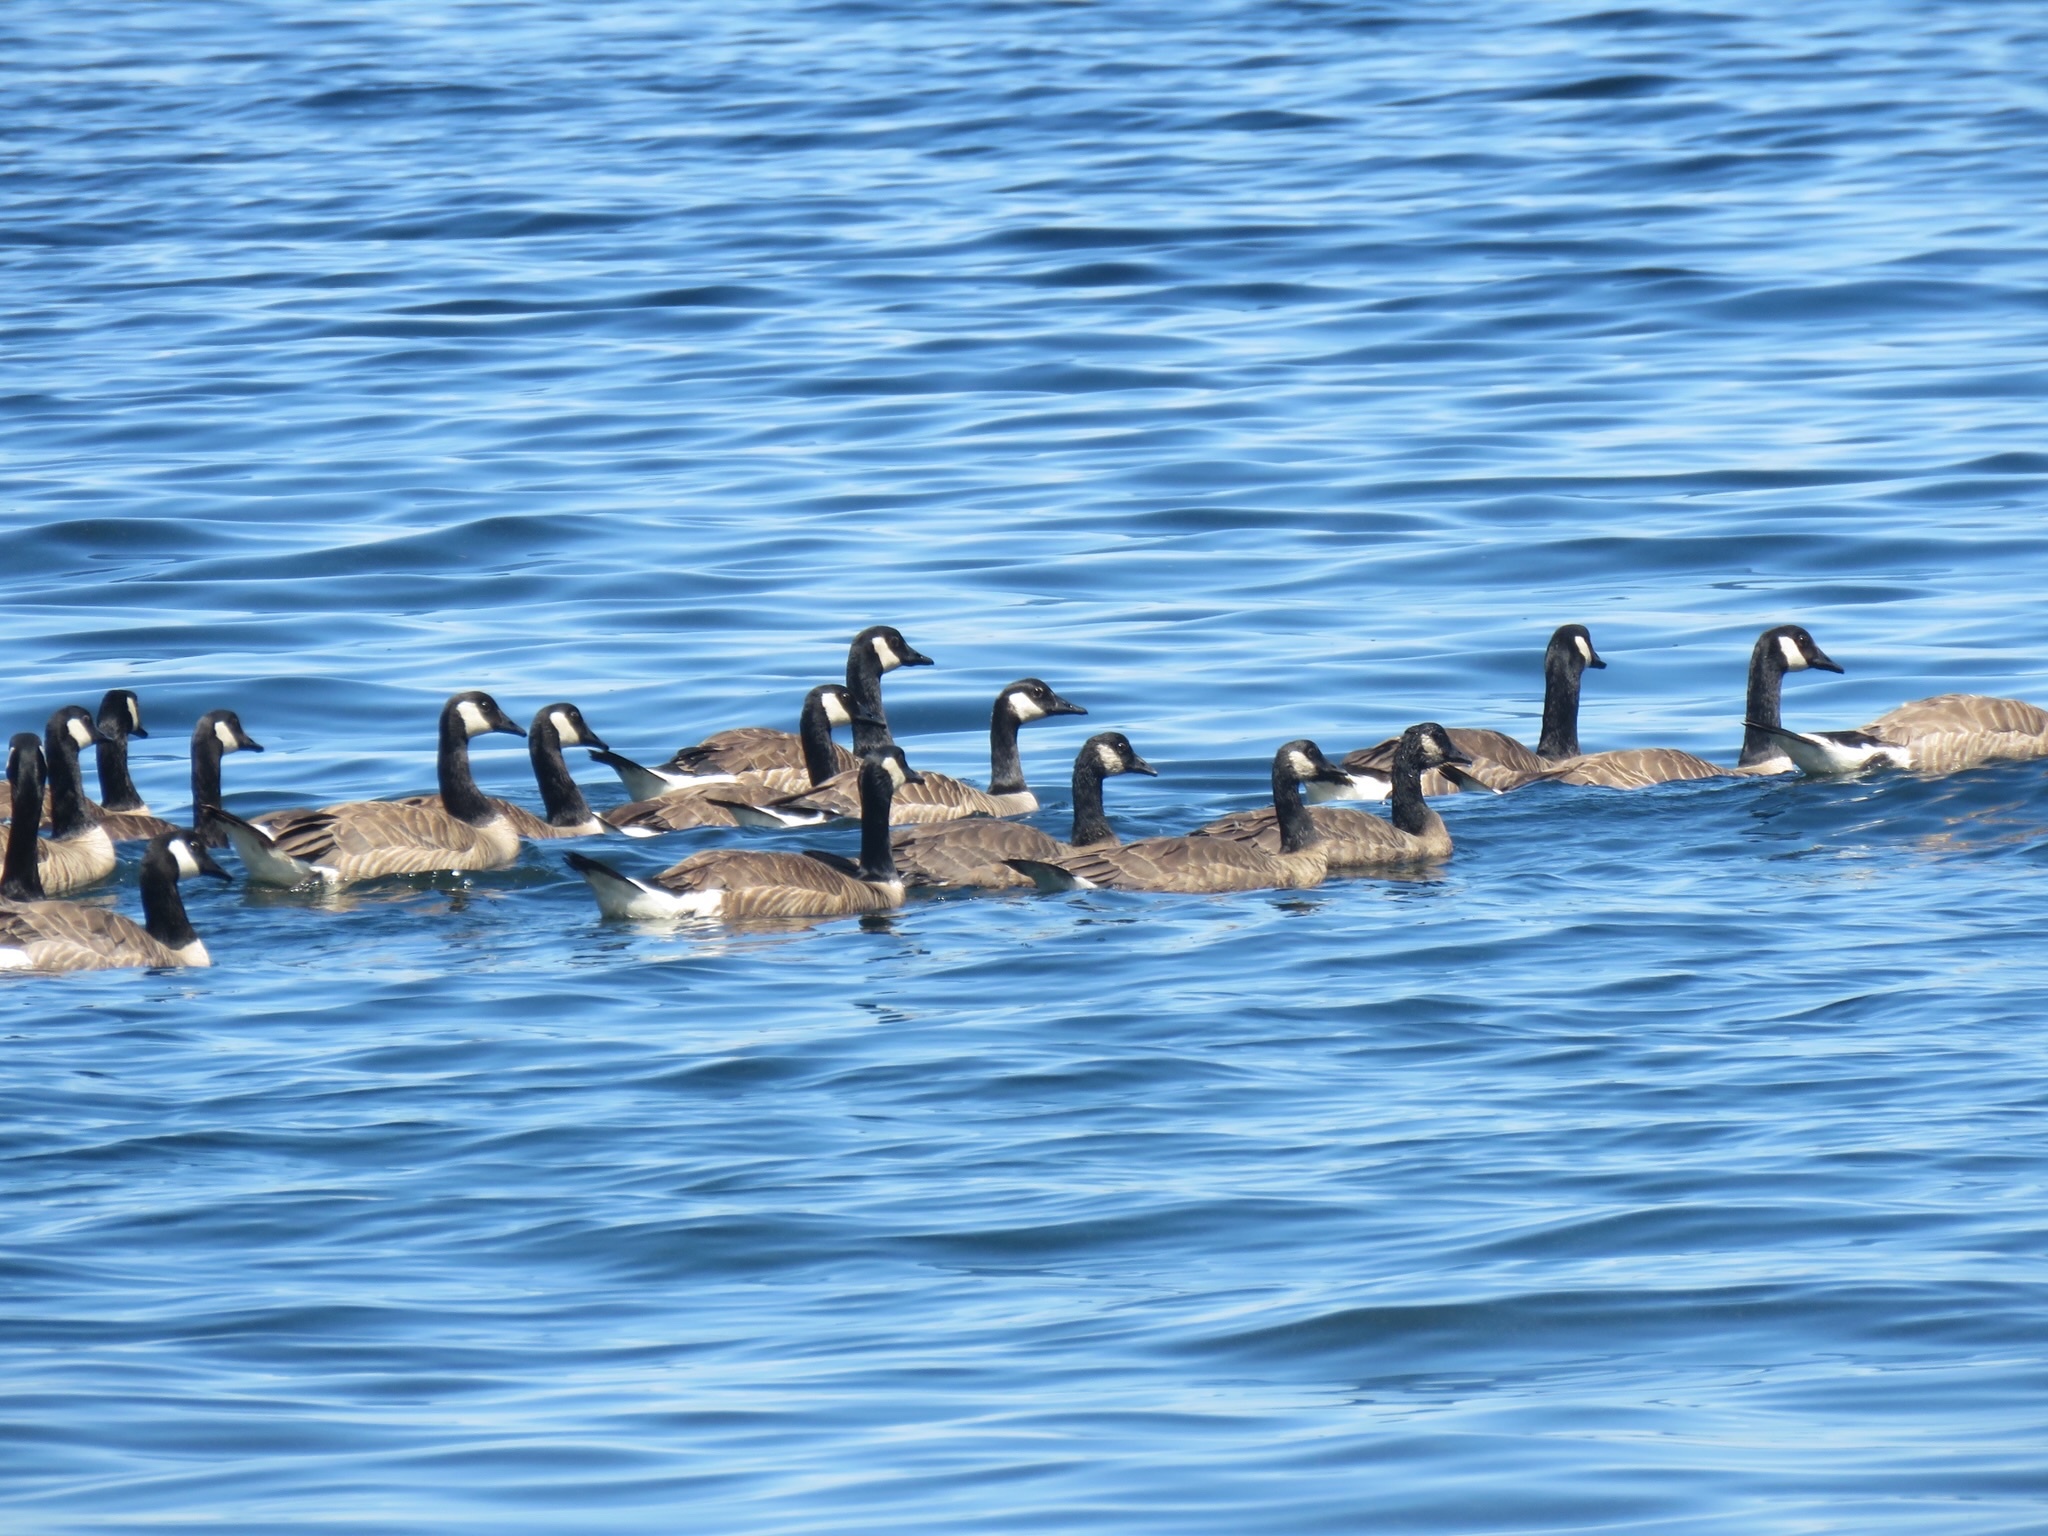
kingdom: Animalia
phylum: Chordata
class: Aves
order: Anseriformes
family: Anatidae
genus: Branta
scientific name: Branta canadensis
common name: Canada goose
